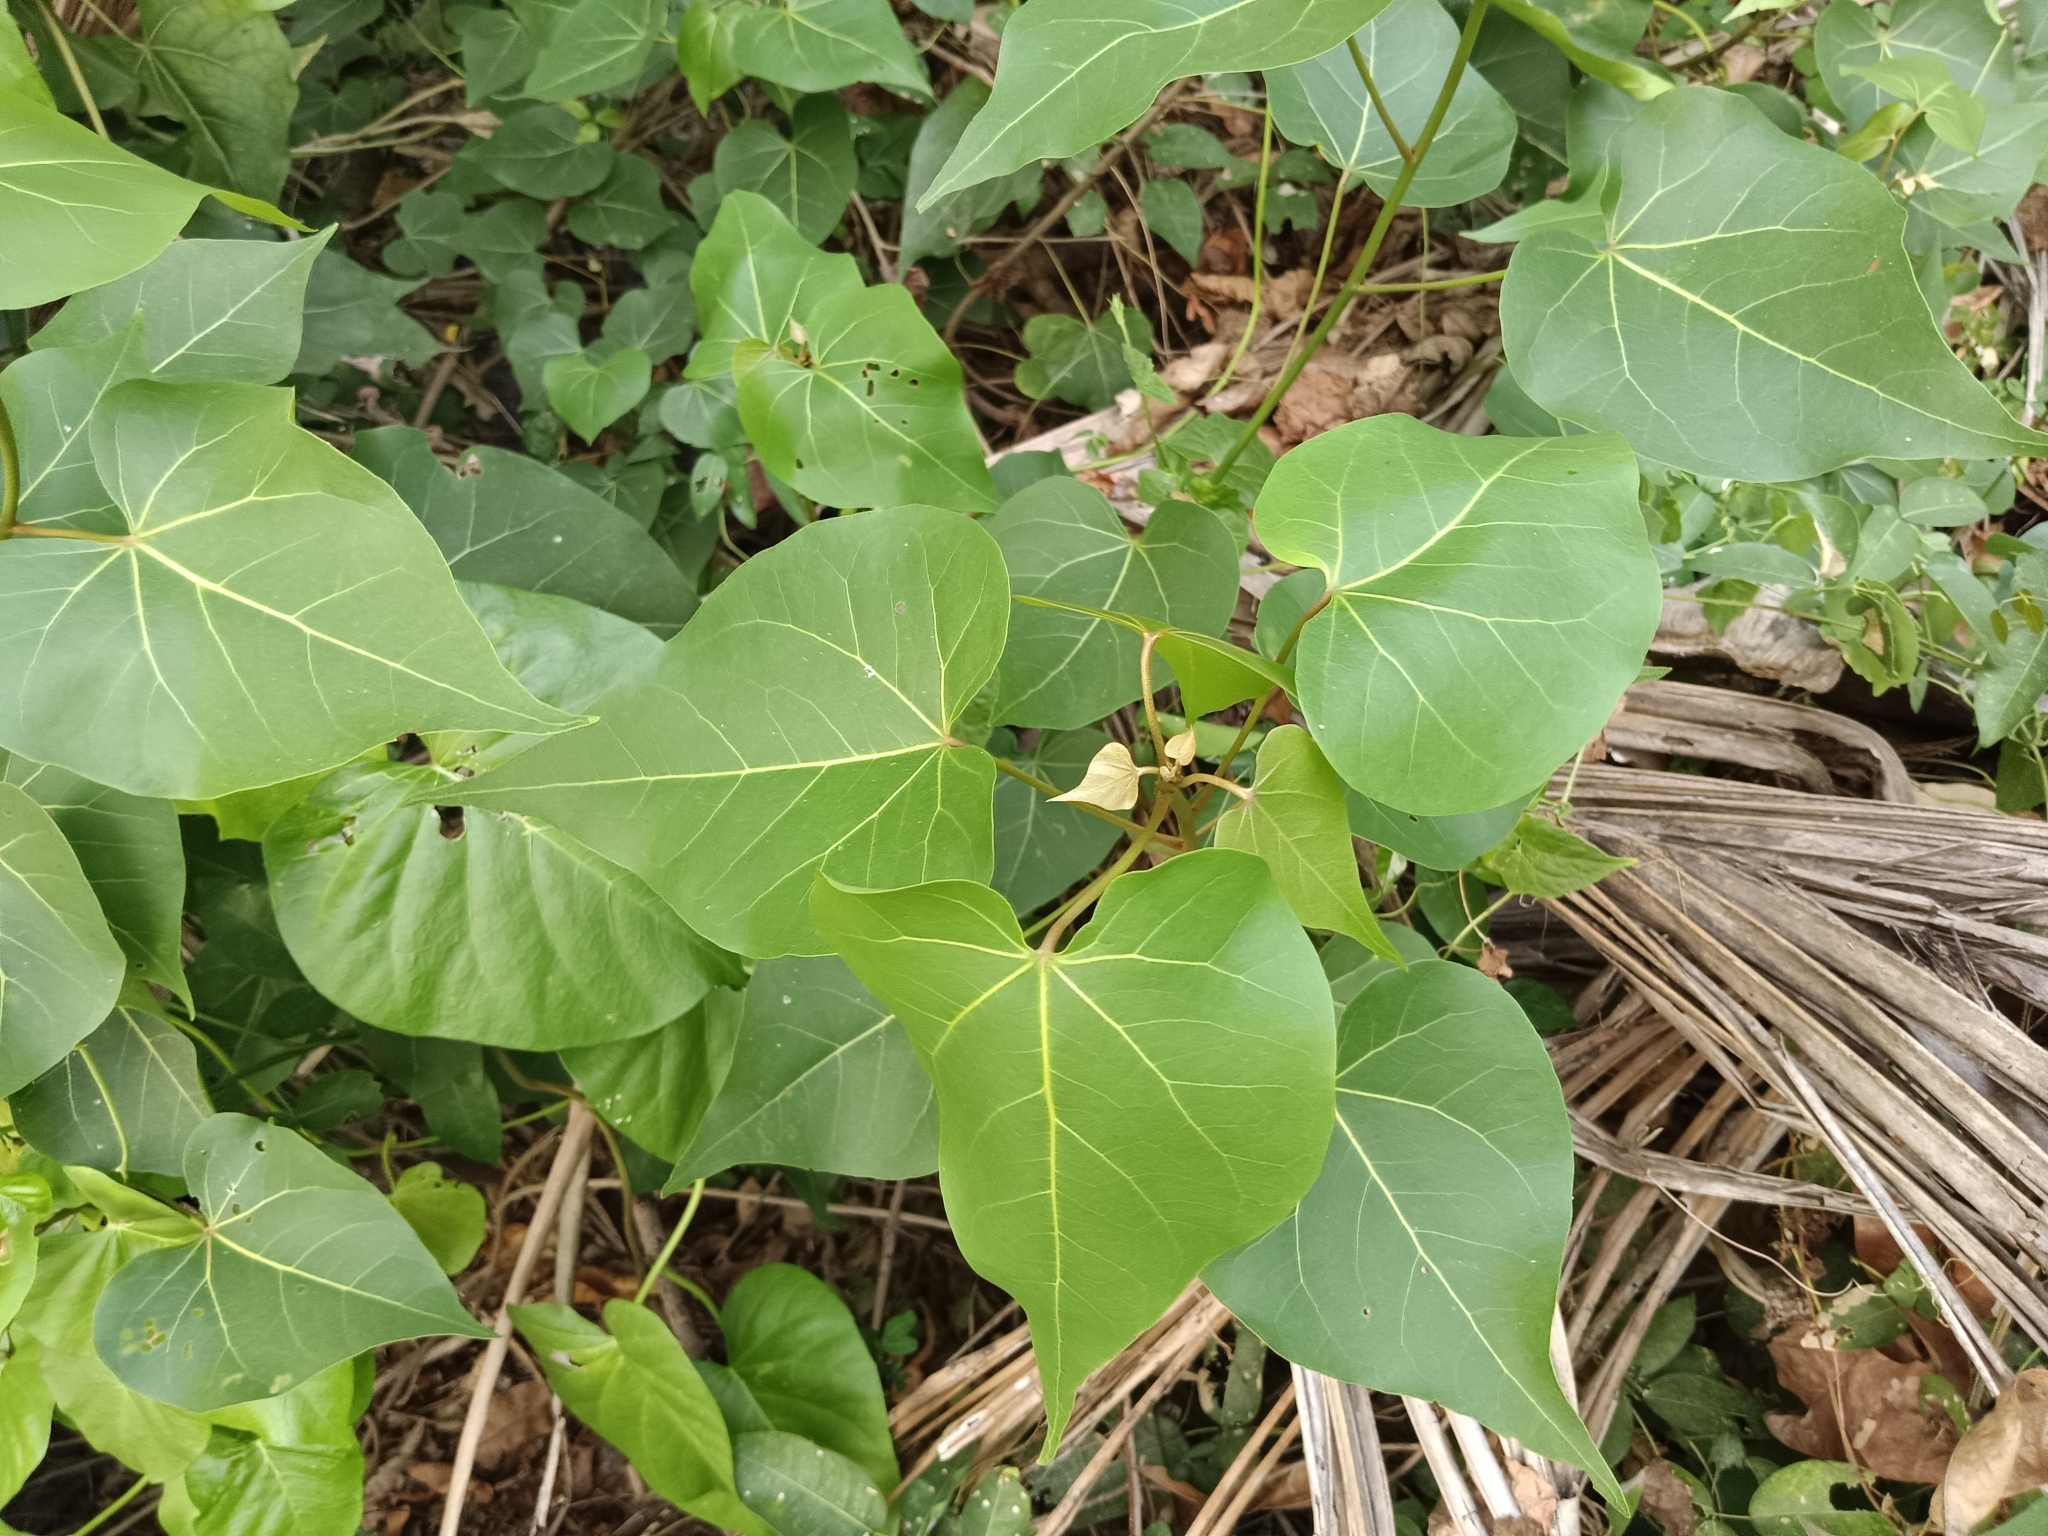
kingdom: Plantae
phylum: Tracheophyta
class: Magnoliopsida
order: Malvales
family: Malvaceae
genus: Thespesia
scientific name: Thespesia populnea
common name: Seaside mahoe
